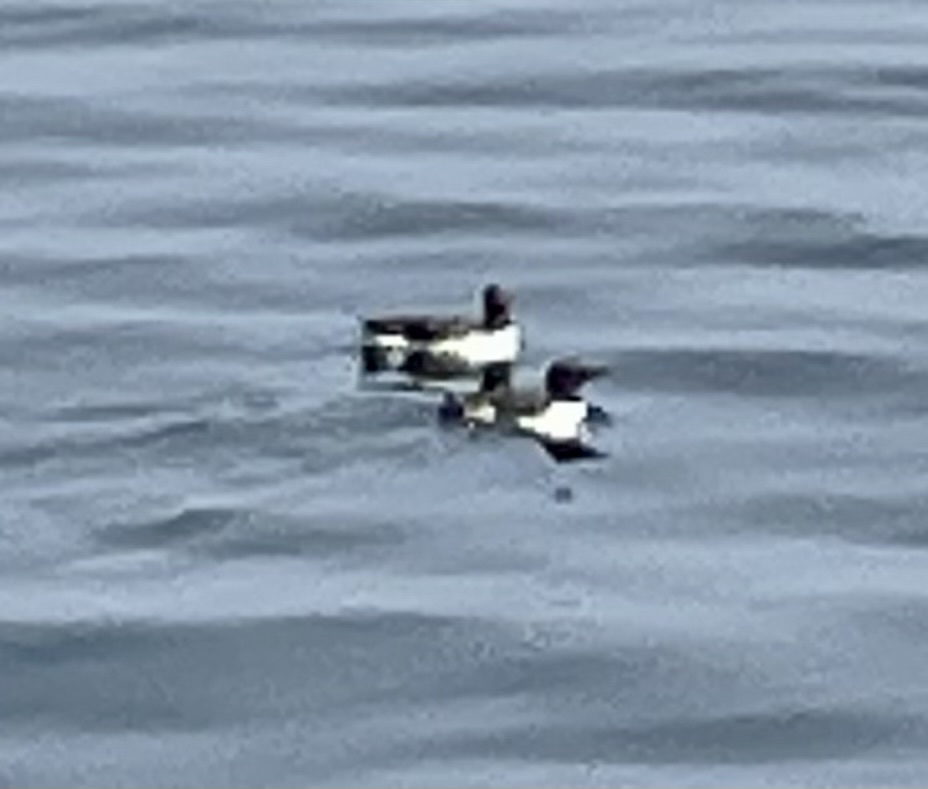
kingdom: Animalia
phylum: Chordata
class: Aves
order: Charadriiformes
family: Alcidae
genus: Uria
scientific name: Uria aalge
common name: Common murre
